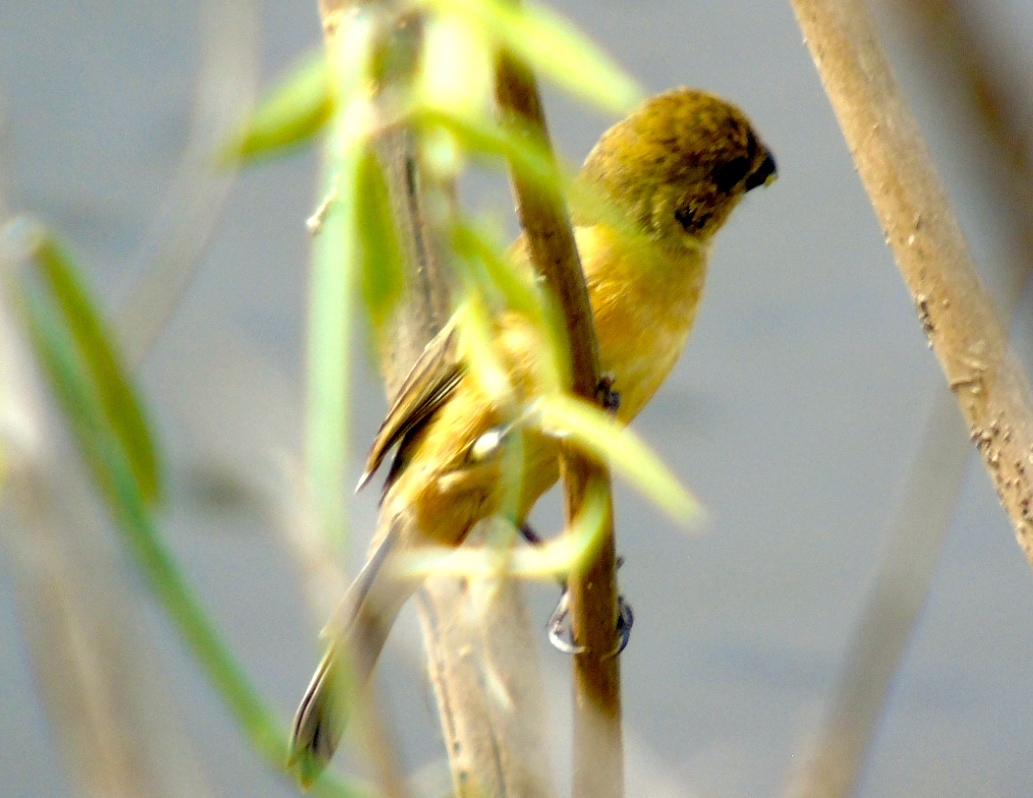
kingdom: Animalia
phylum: Chordata
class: Aves
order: Passeriformes
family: Thraupidae
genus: Sporophila
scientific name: Sporophila torqueola
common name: White-collared seedeater
